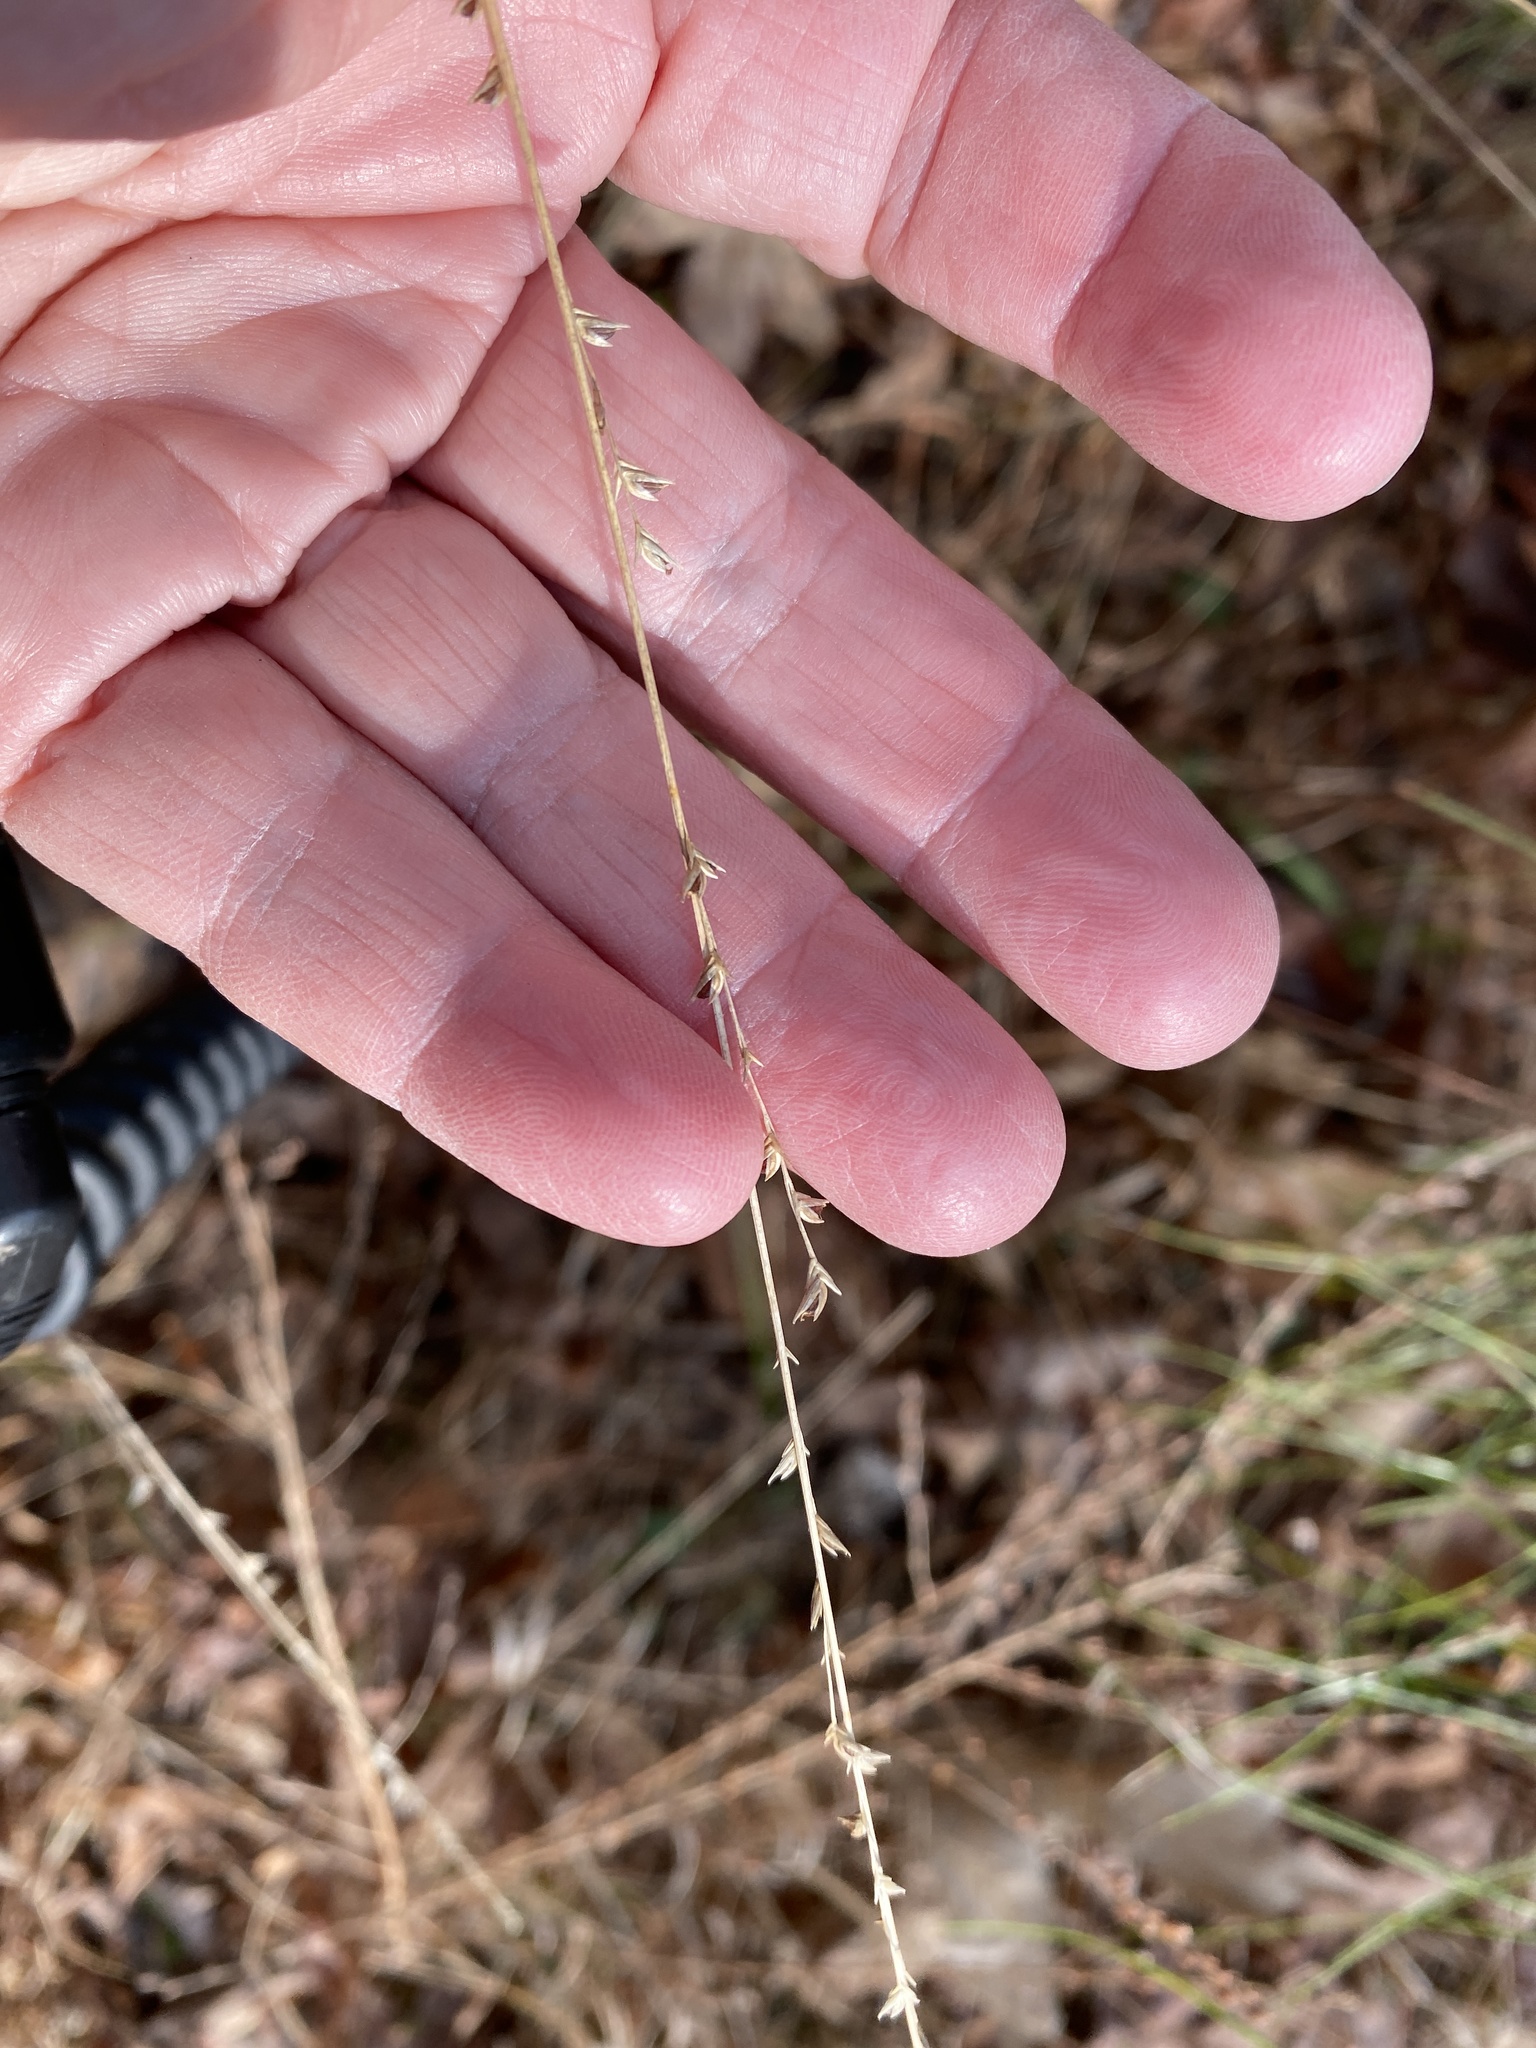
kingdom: Plantae
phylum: Tracheophyta
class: Liliopsida
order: Poales
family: Poaceae
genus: Chasmanthium
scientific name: Chasmanthium laxum
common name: Slender chasmanthium
